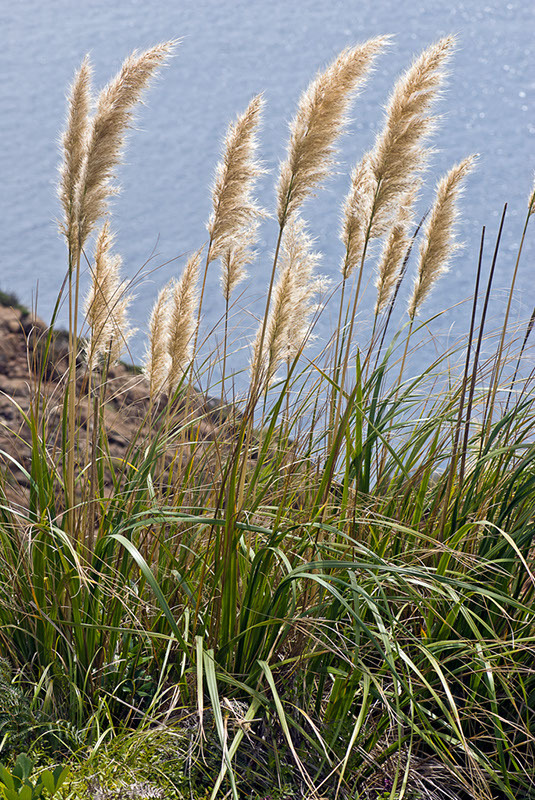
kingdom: Plantae
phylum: Tracheophyta
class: Liliopsida
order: Poales
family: Poaceae
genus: Austroderia
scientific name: Austroderia splendens
